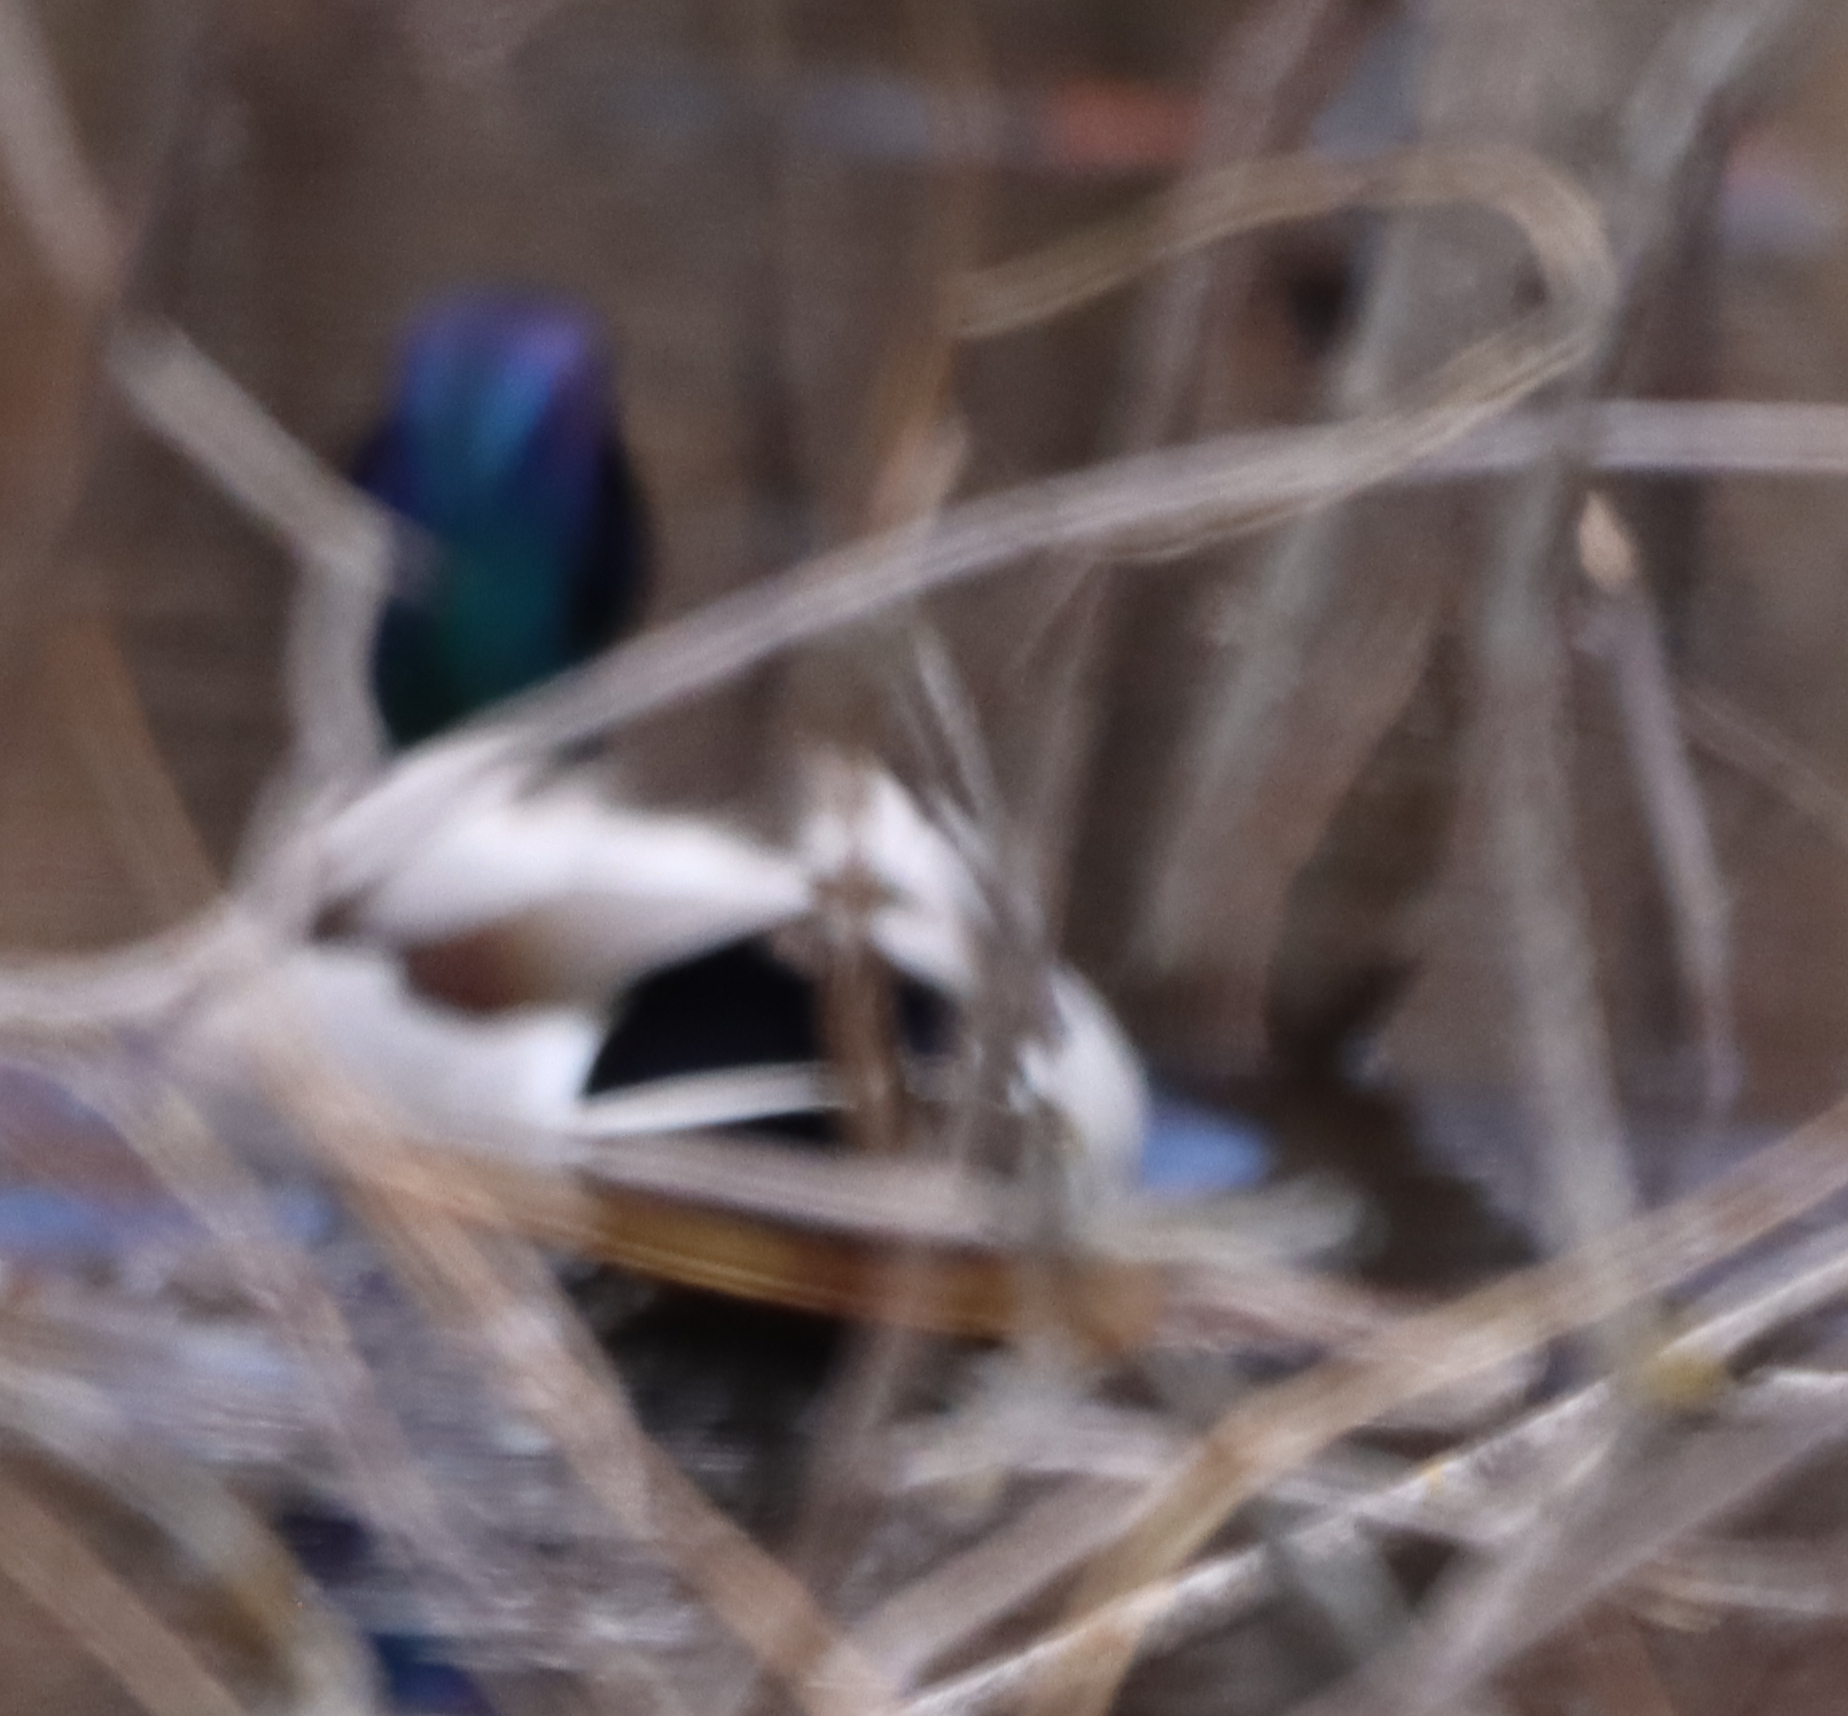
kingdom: Animalia
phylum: Chordata
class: Aves
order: Anseriformes
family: Anatidae
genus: Anas
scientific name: Anas platyrhynchos
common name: Mallard
